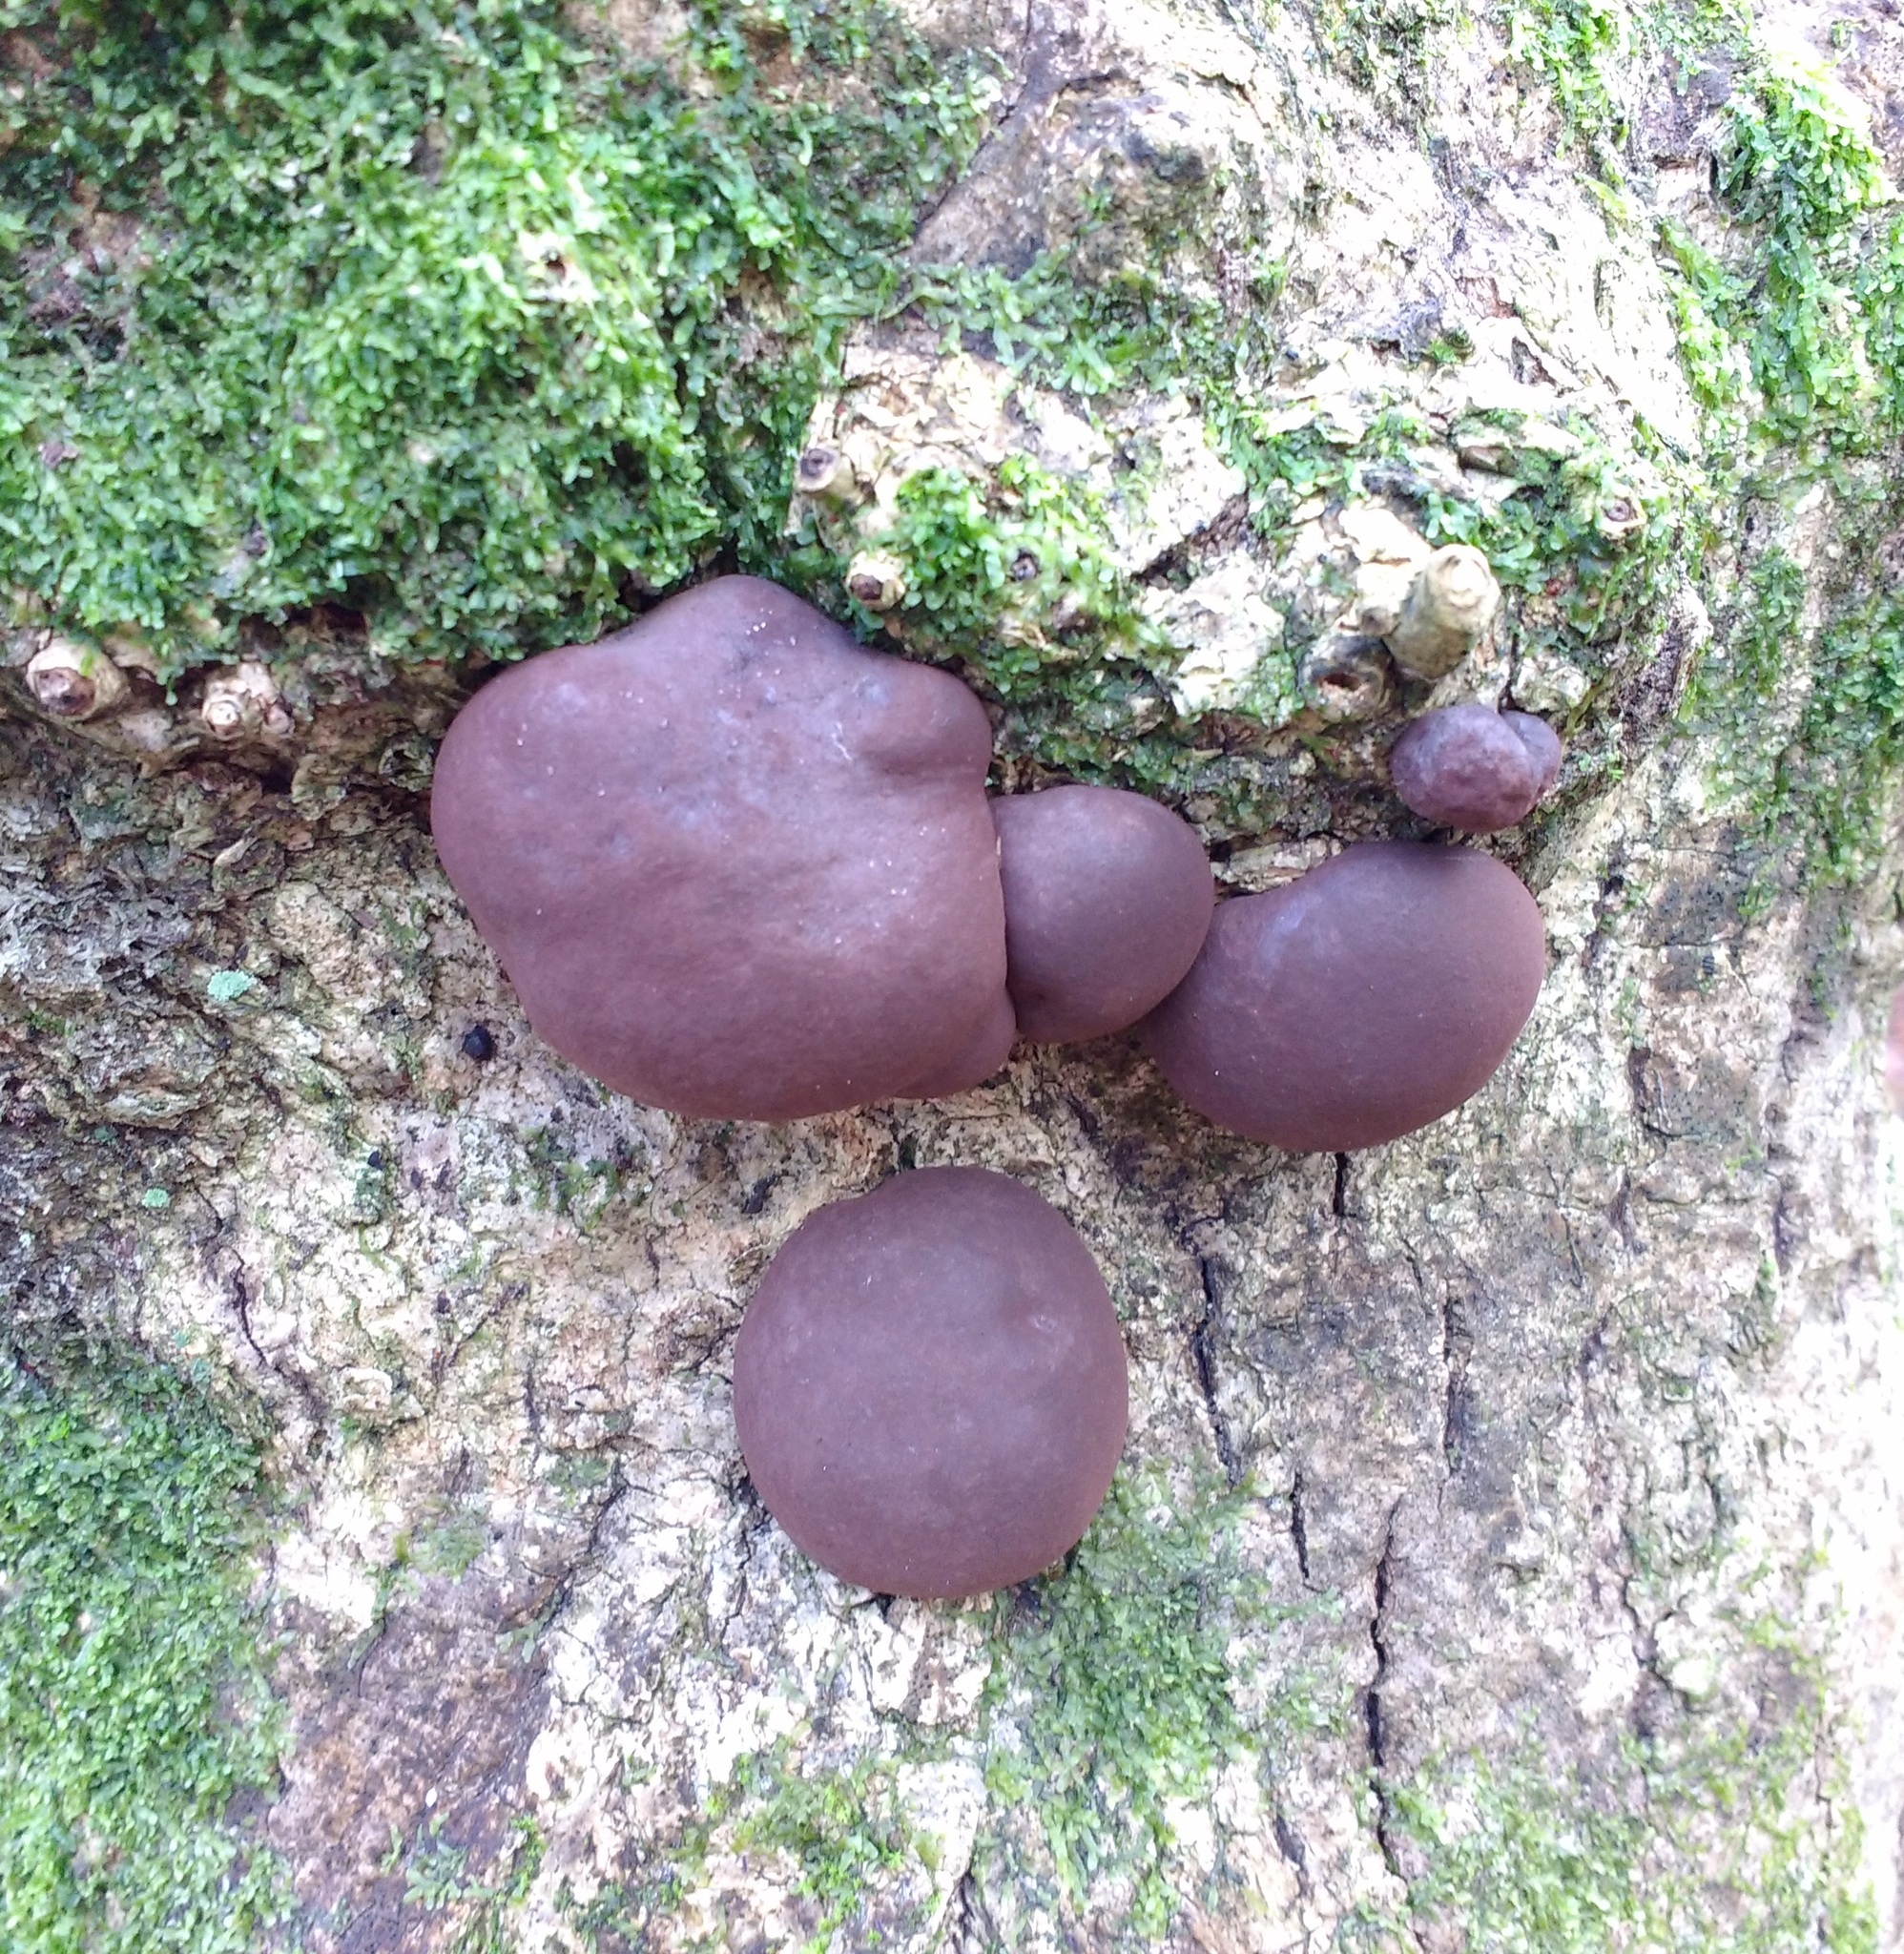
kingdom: Fungi
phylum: Ascomycota
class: Sordariomycetes
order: Xylariales
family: Hypoxylaceae
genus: Daldinia
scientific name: Daldinia concentrica
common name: Cramp balls
